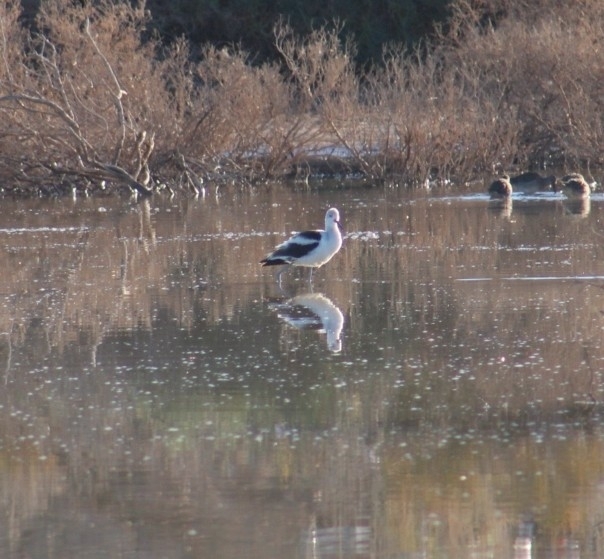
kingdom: Animalia
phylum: Chordata
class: Aves
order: Charadriiformes
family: Recurvirostridae
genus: Recurvirostra
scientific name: Recurvirostra americana
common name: American avocet
